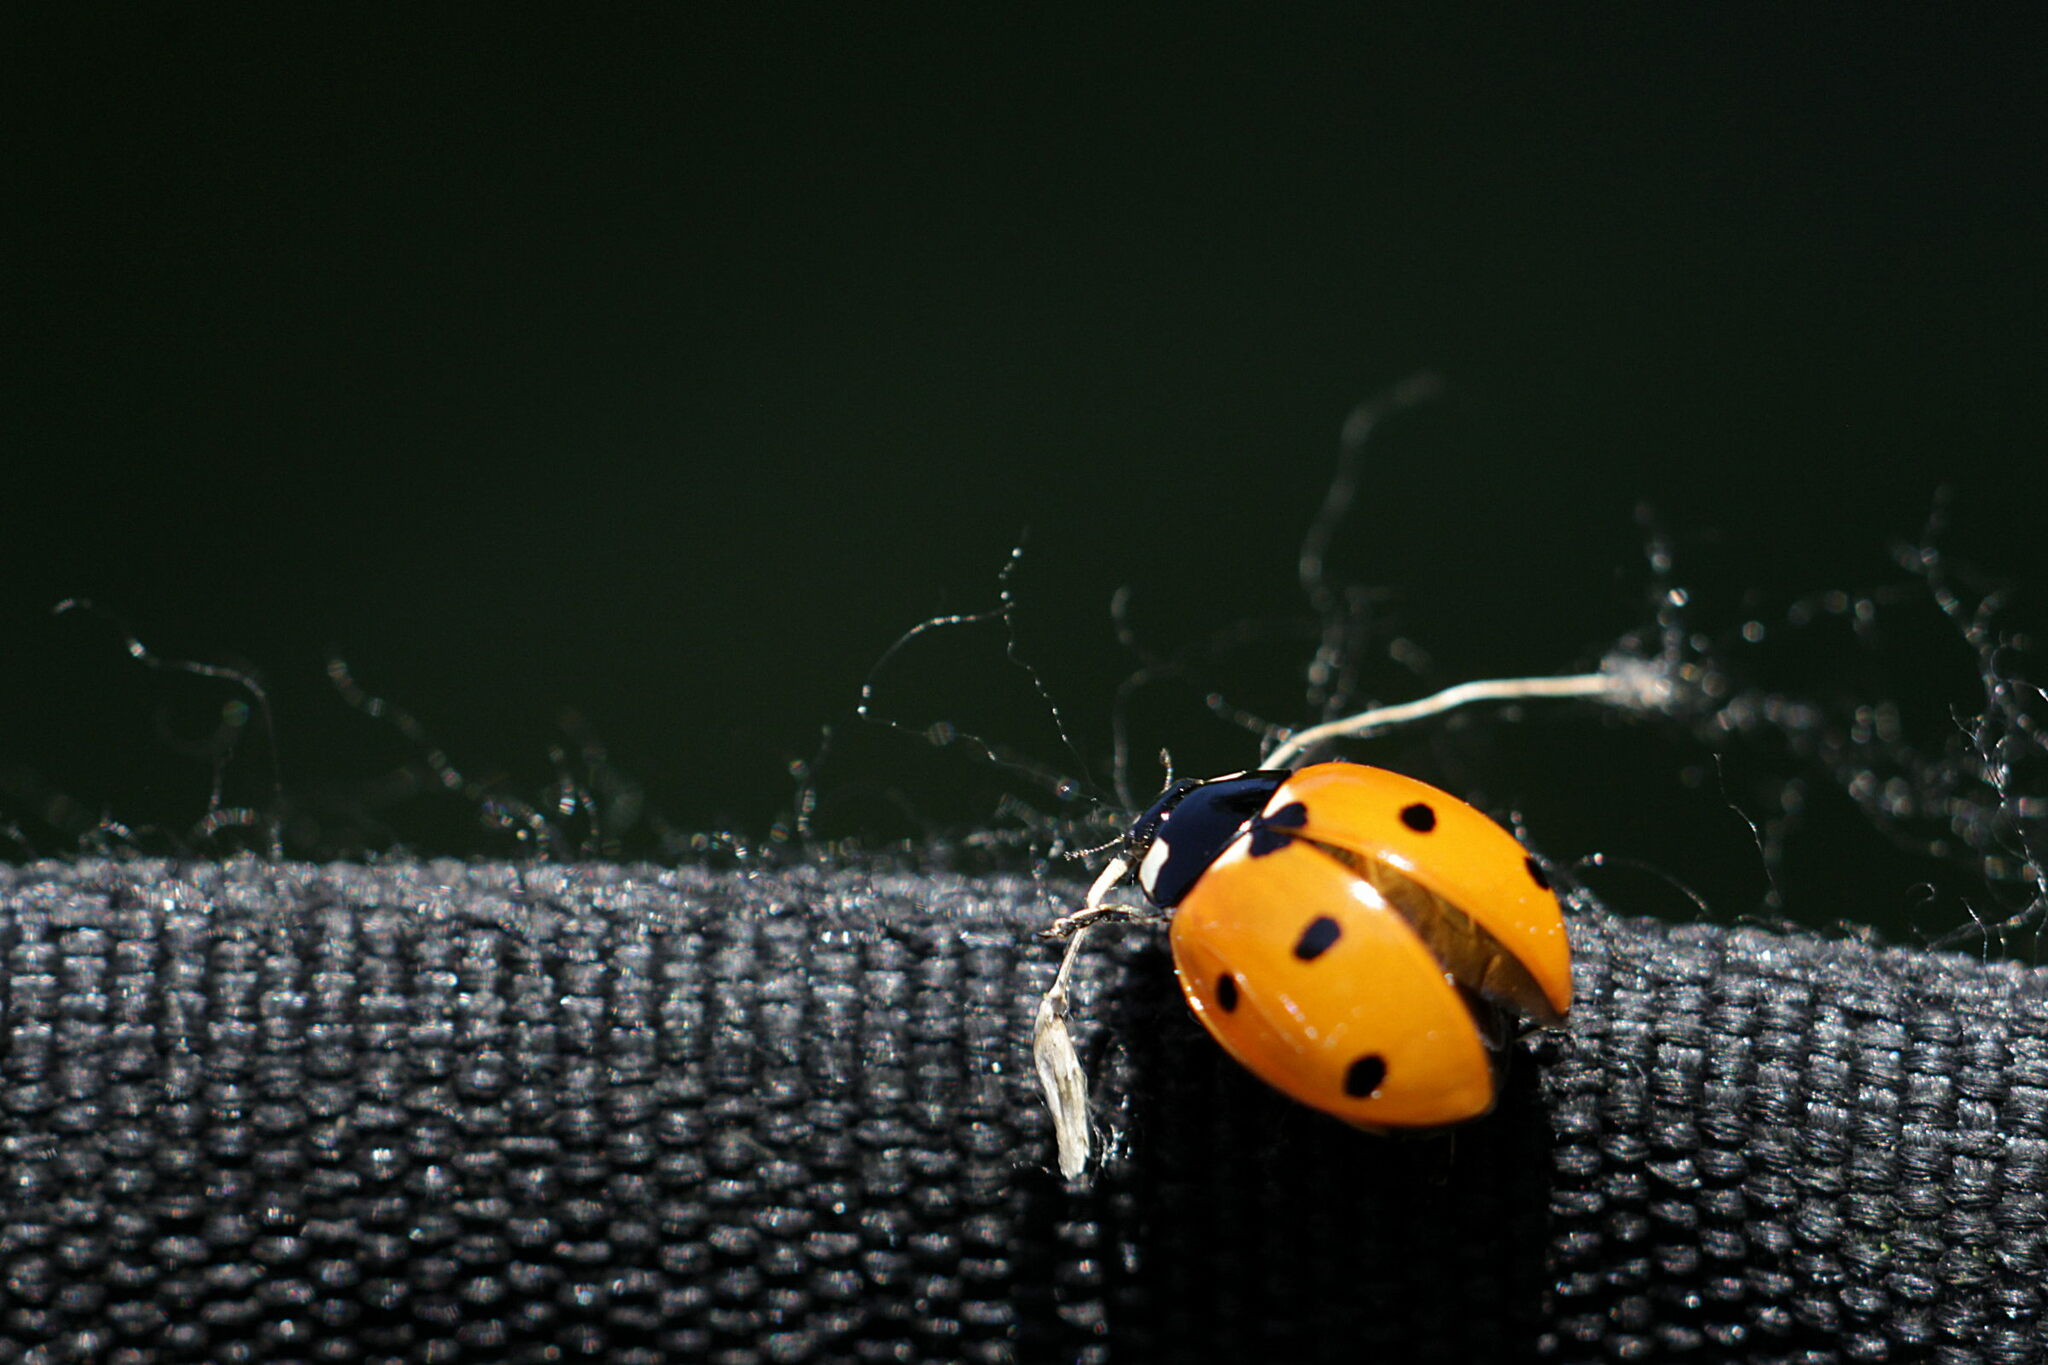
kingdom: Animalia
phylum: Arthropoda
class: Insecta
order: Coleoptera
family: Coccinellidae
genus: Coccinella
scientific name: Coccinella septempunctata
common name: Sevenspotted lady beetle
